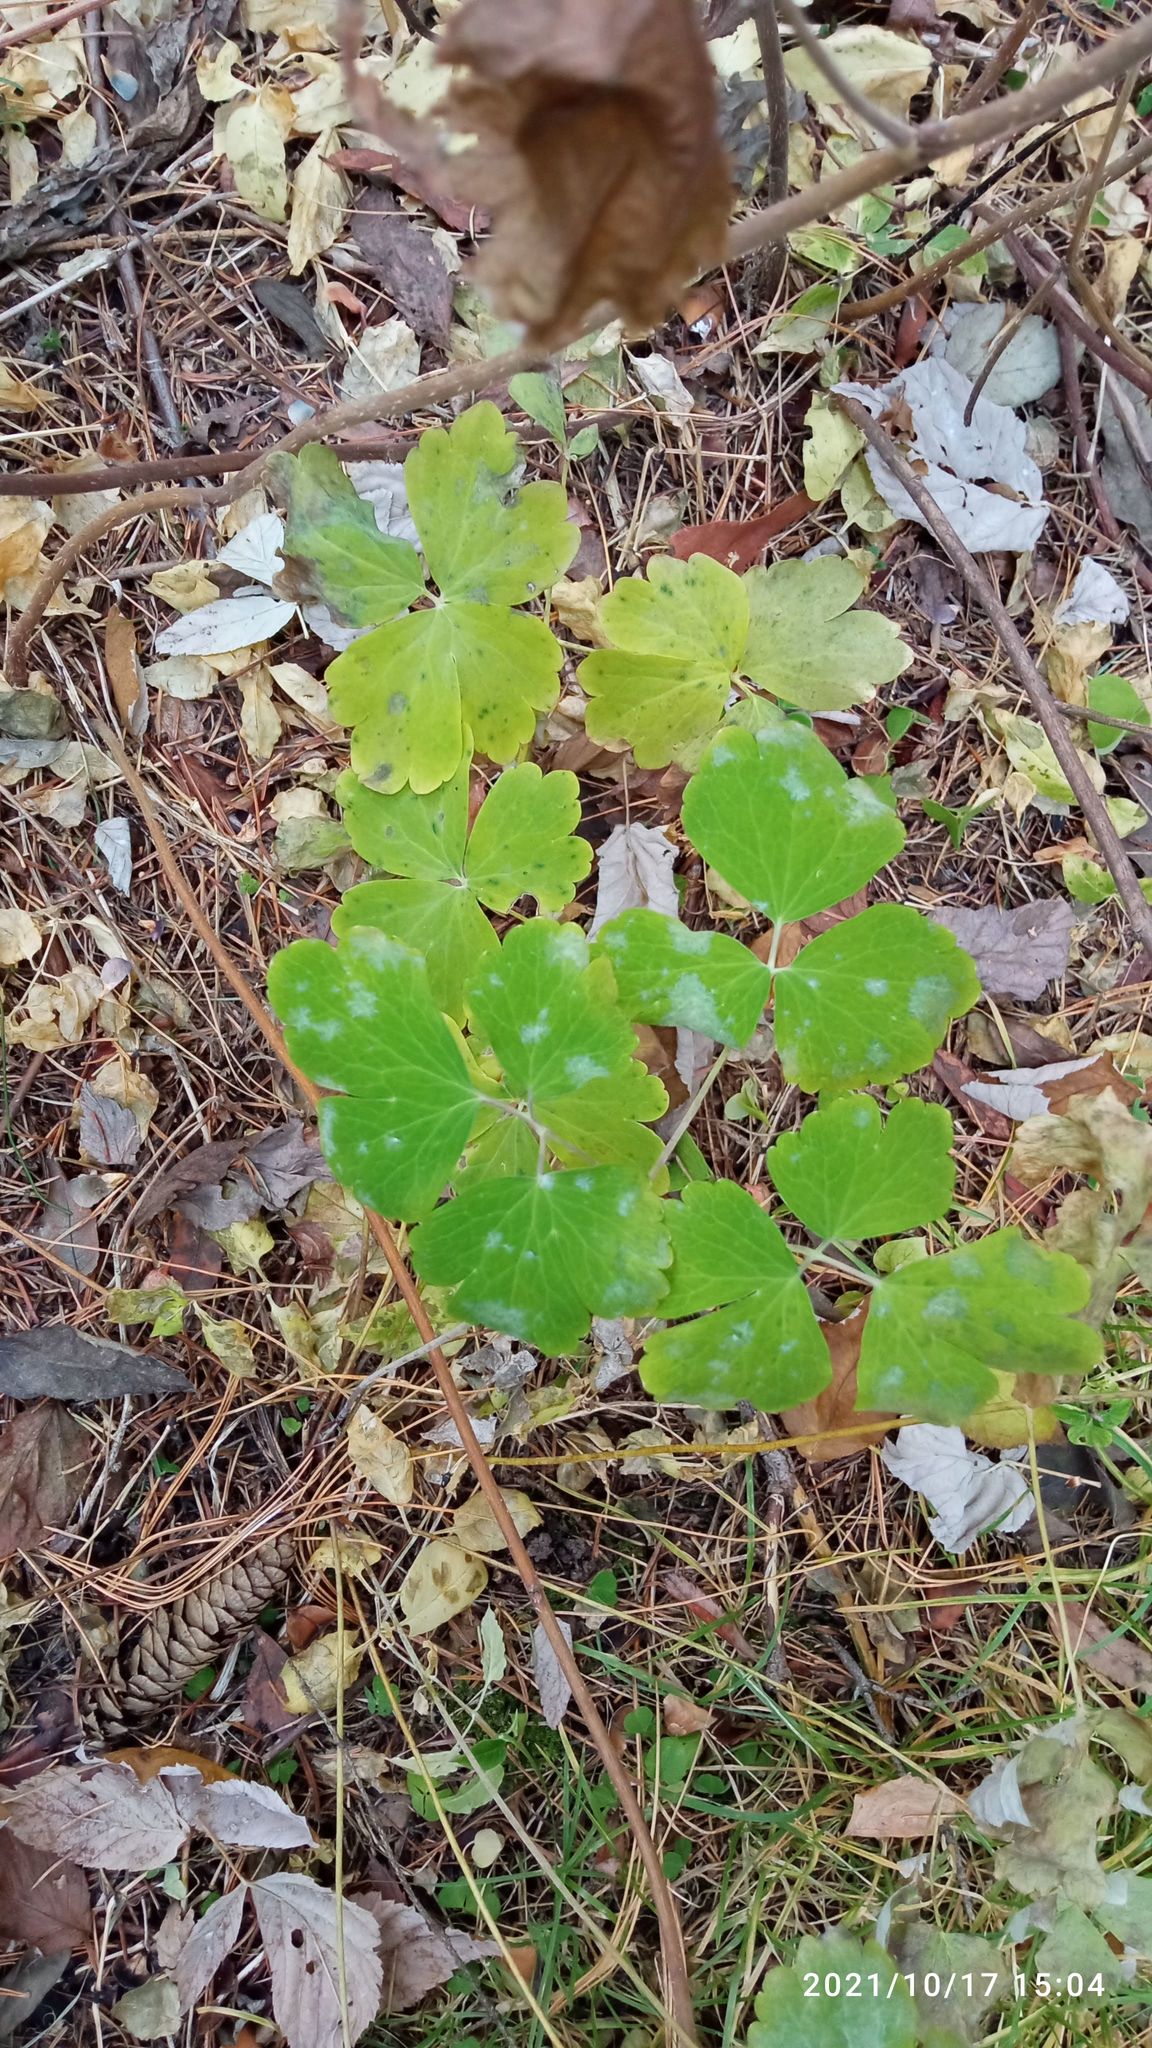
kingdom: Plantae
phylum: Tracheophyta
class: Magnoliopsida
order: Ranunculales
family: Ranunculaceae
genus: Aquilegia
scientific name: Aquilegia vulgaris
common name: Columbine
